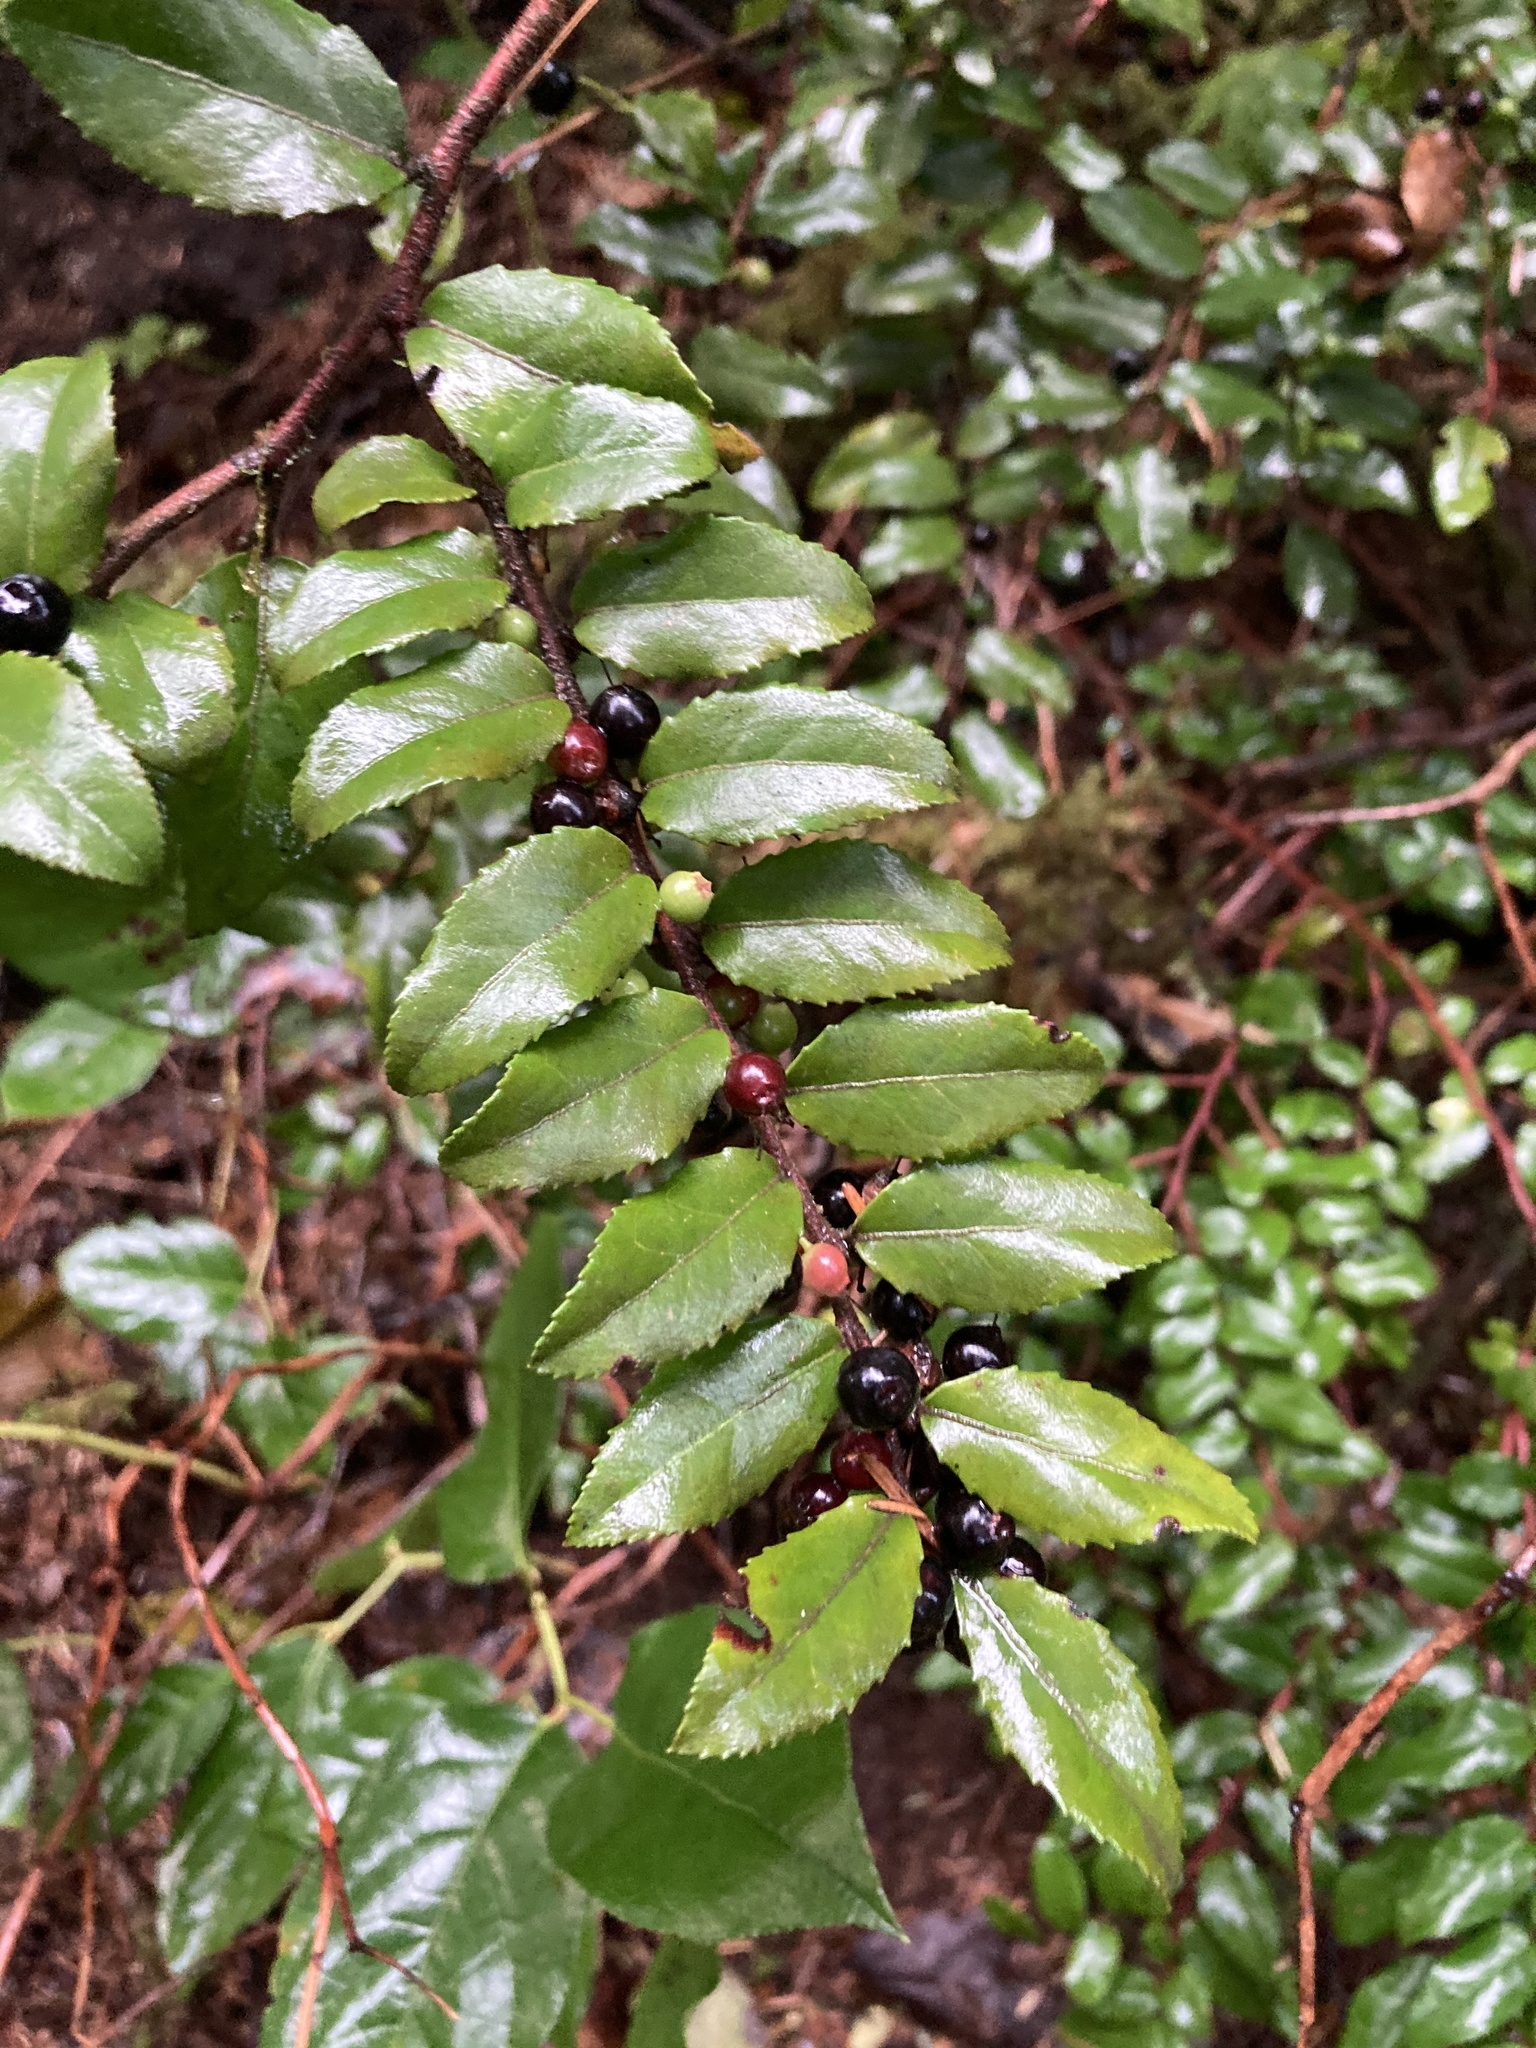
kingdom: Plantae
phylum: Tracheophyta
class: Magnoliopsida
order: Ericales
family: Ericaceae
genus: Vaccinium
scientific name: Vaccinium ovatum
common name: California-huckleberry
